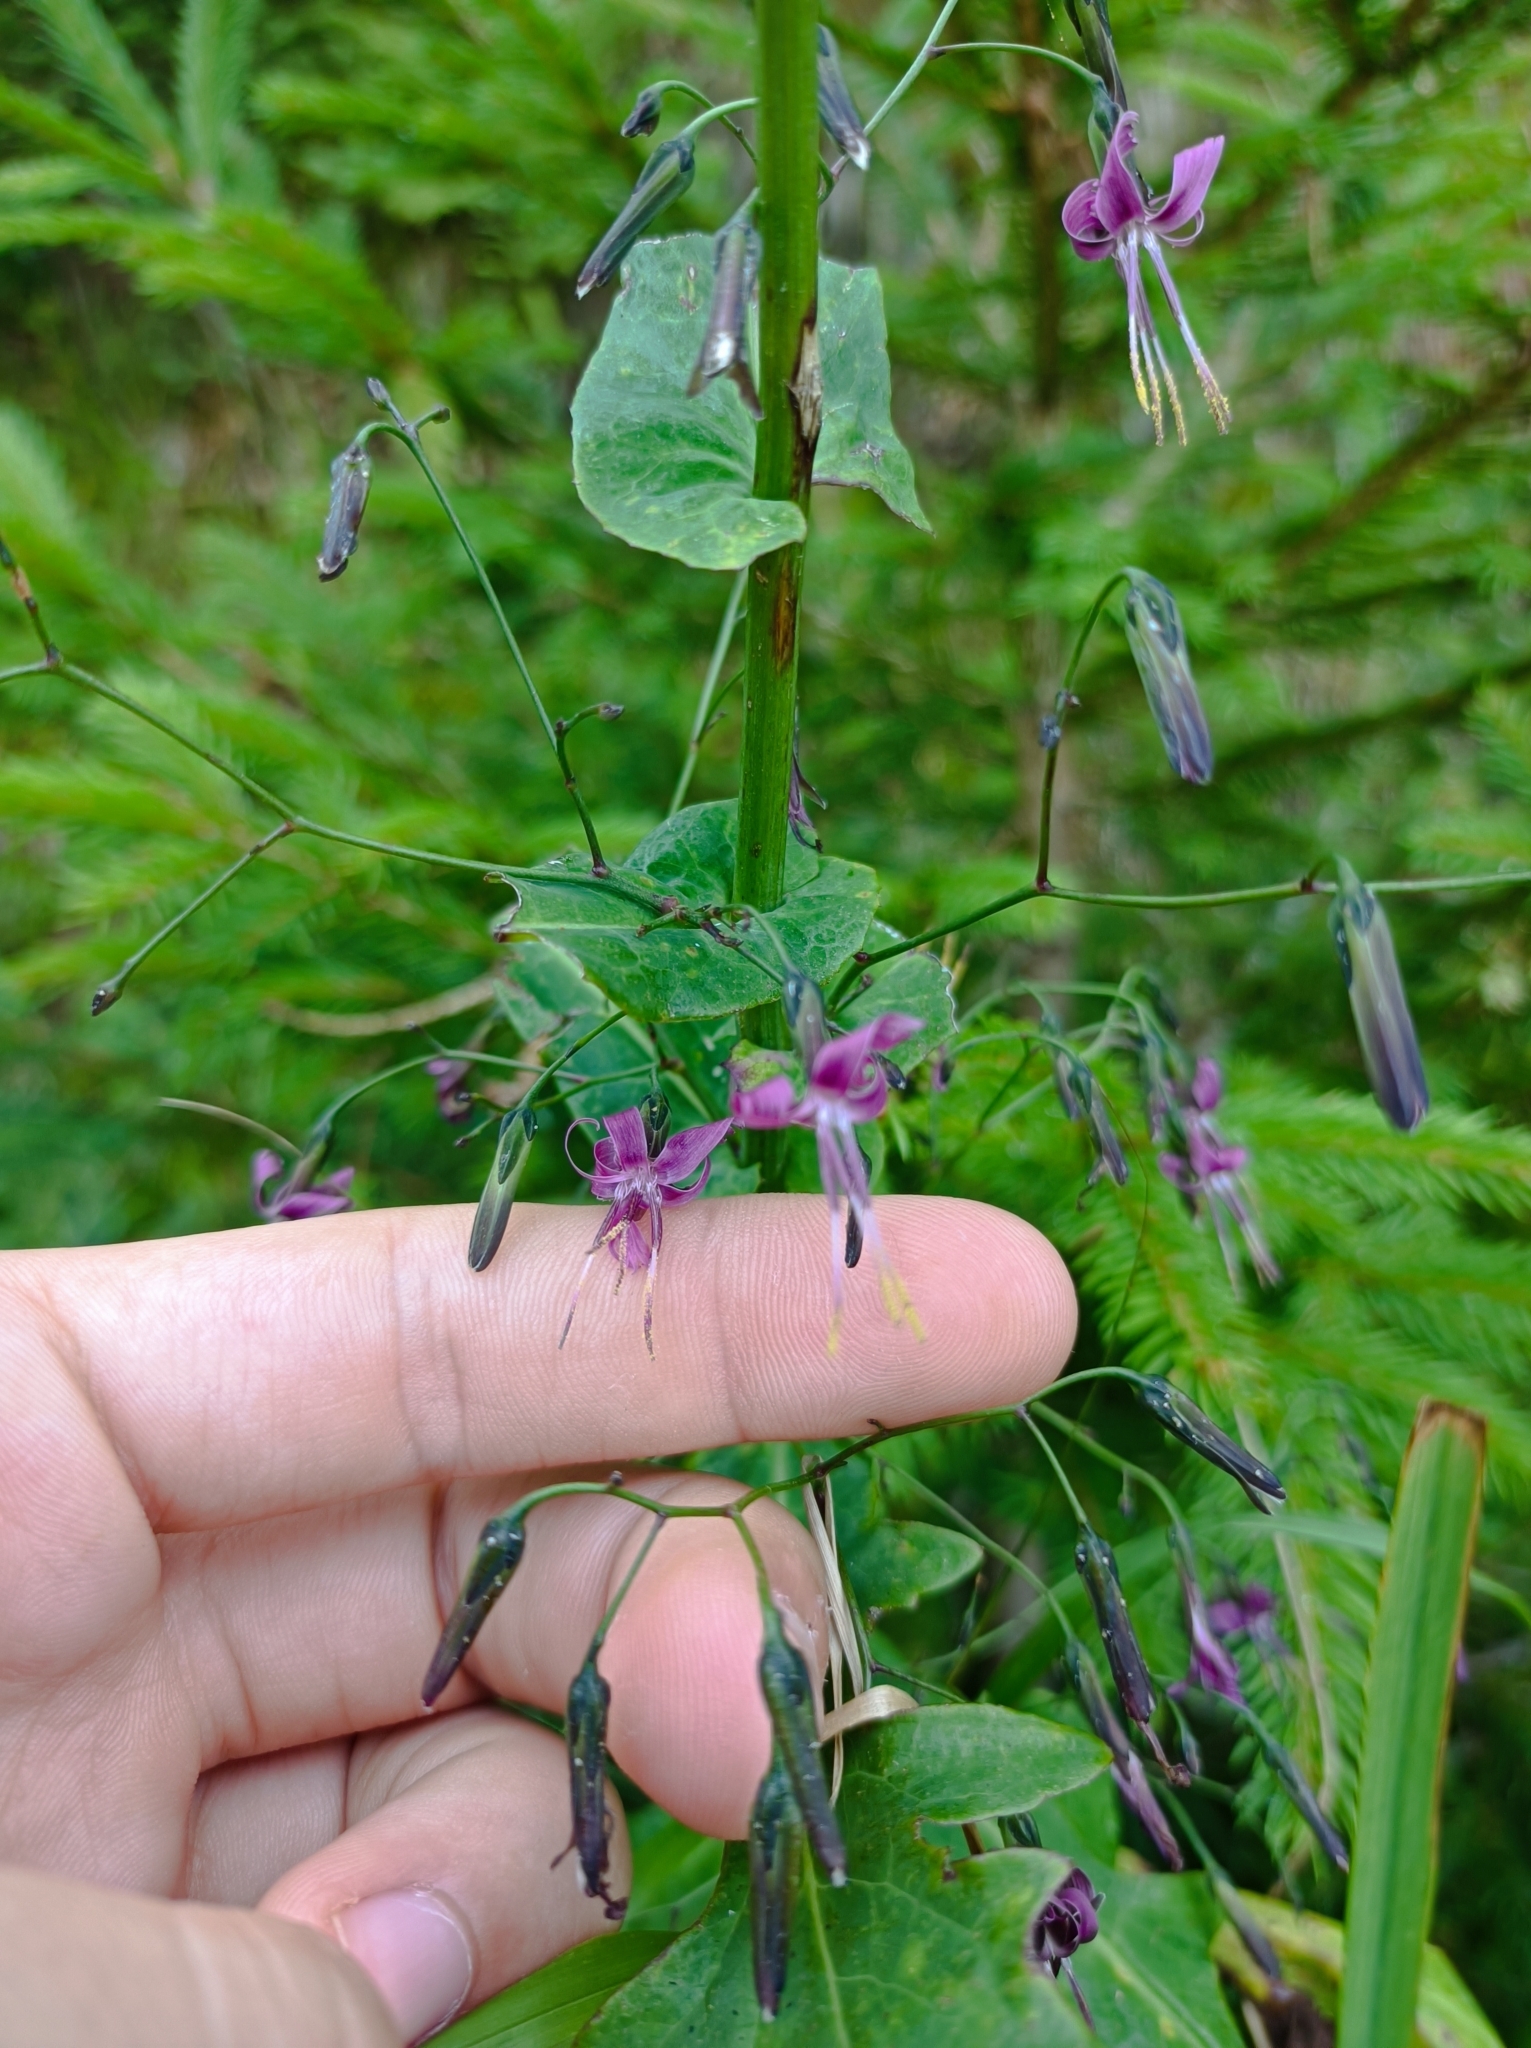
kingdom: Plantae
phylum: Tracheophyta
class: Magnoliopsida
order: Asterales
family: Asteraceae
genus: Prenanthes
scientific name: Prenanthes purpurea
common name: Purple lettuce
